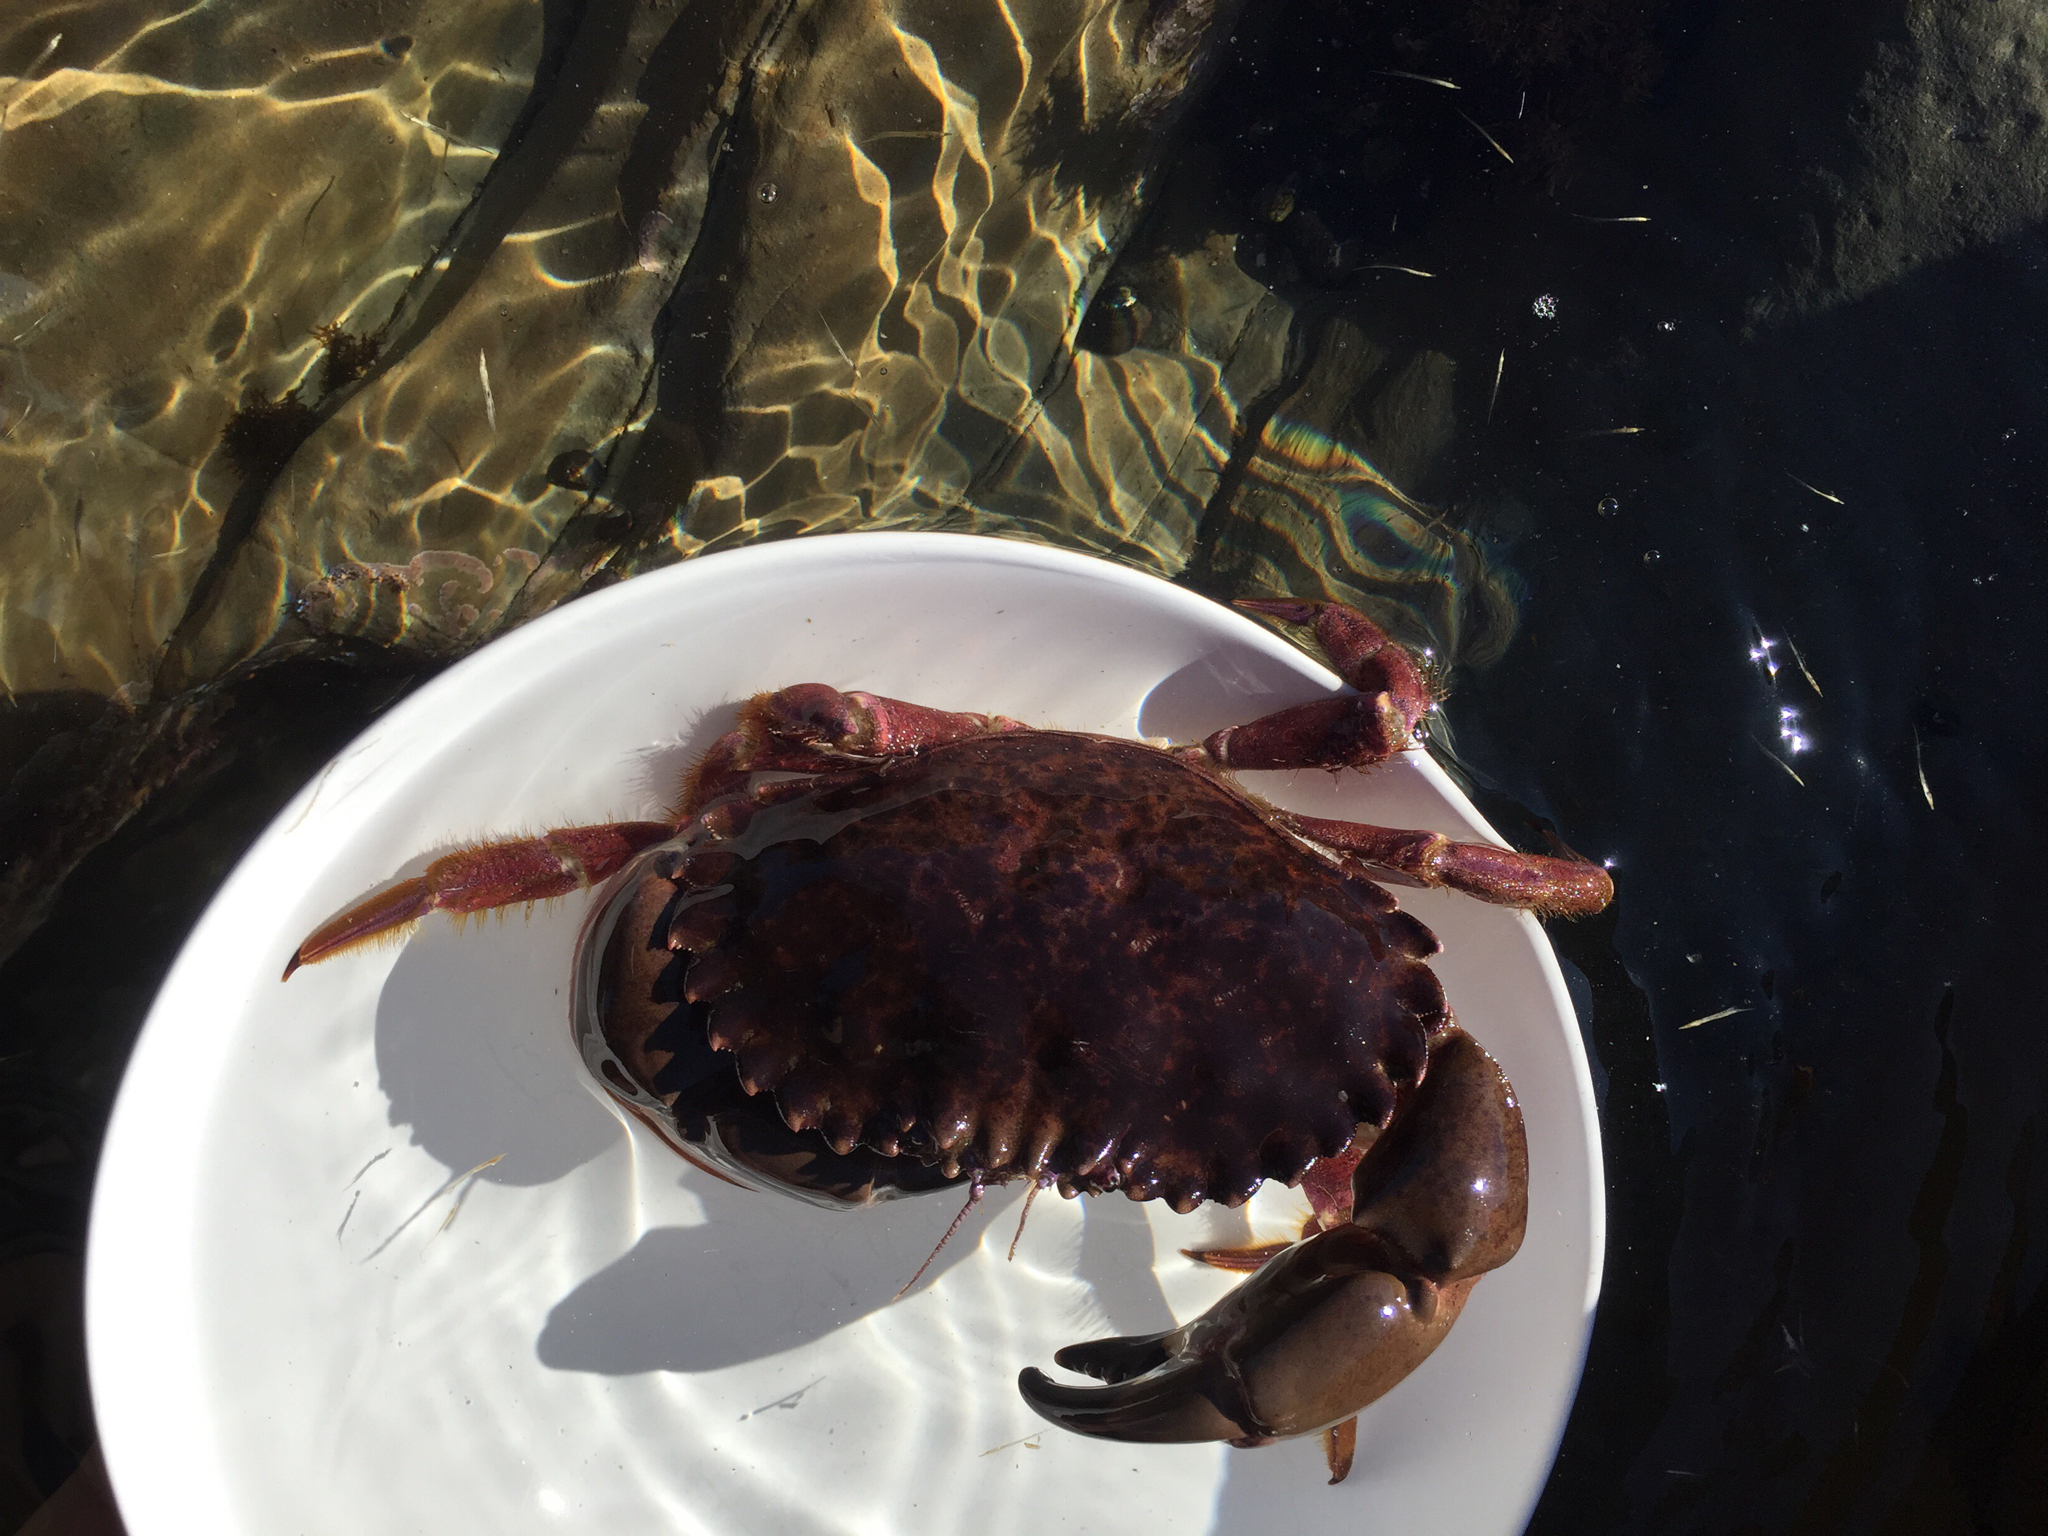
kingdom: Animalia
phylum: Arthropoda
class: Malacostraca
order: Decapoda
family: Cancridae
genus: Romaleon
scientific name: Romaleon antennarium
